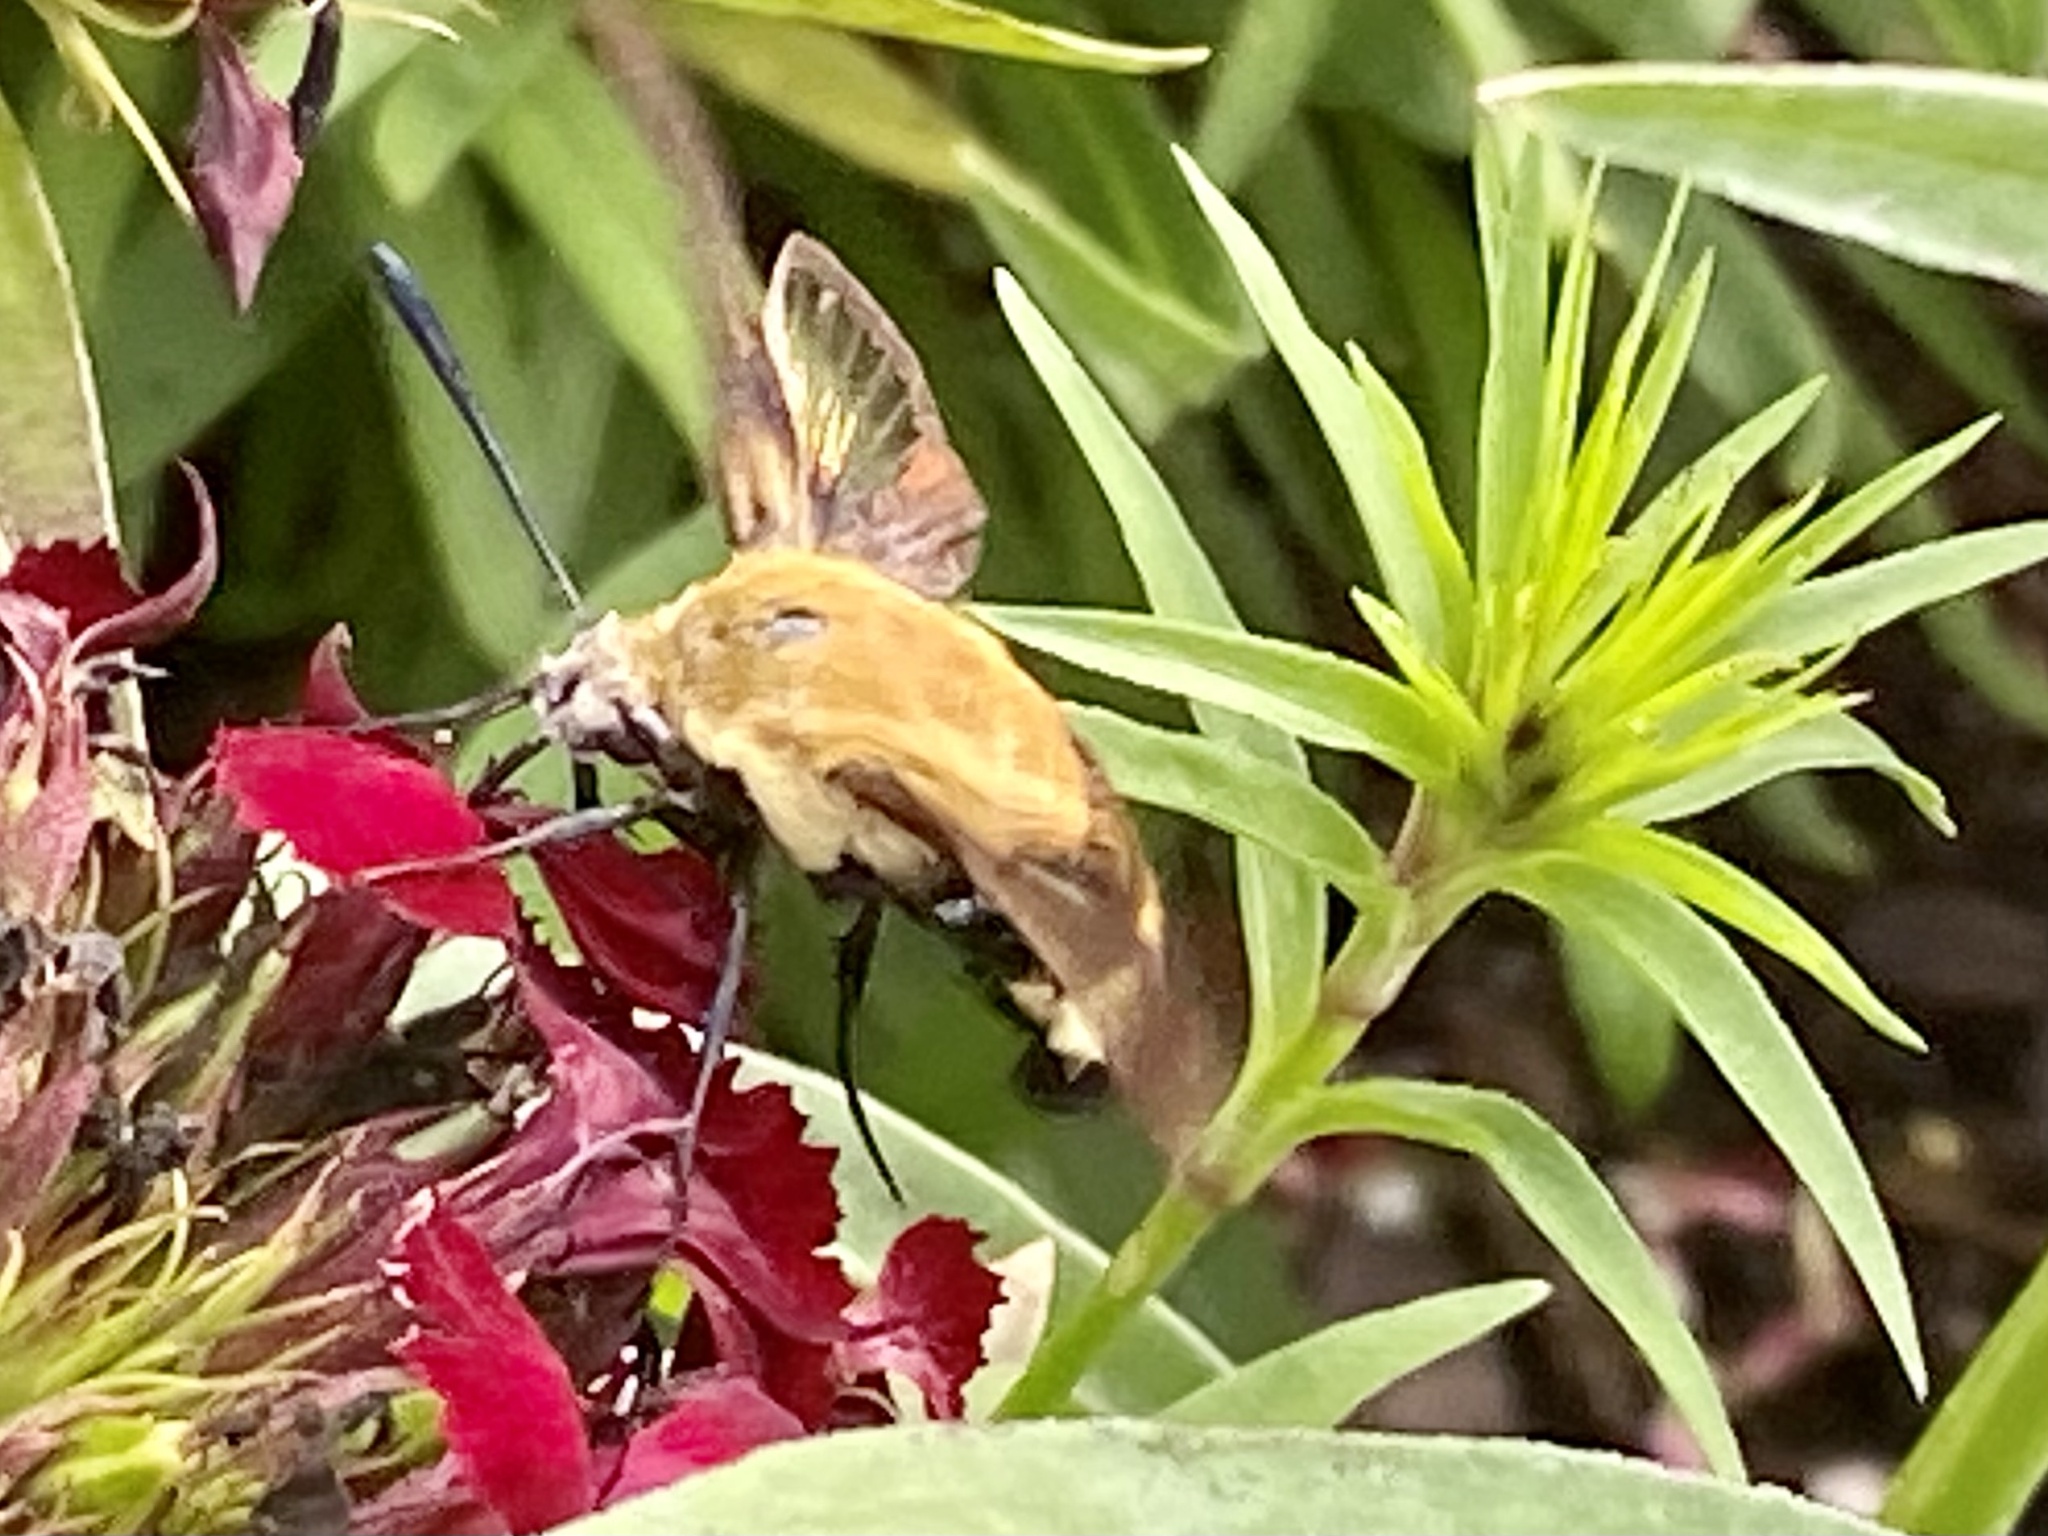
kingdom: Animalia
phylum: Arthropoda
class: Insecta
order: Lepidoptera
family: Sphingidae
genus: Hemaris
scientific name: Hemaris diffinis
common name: Bumblebee moth
